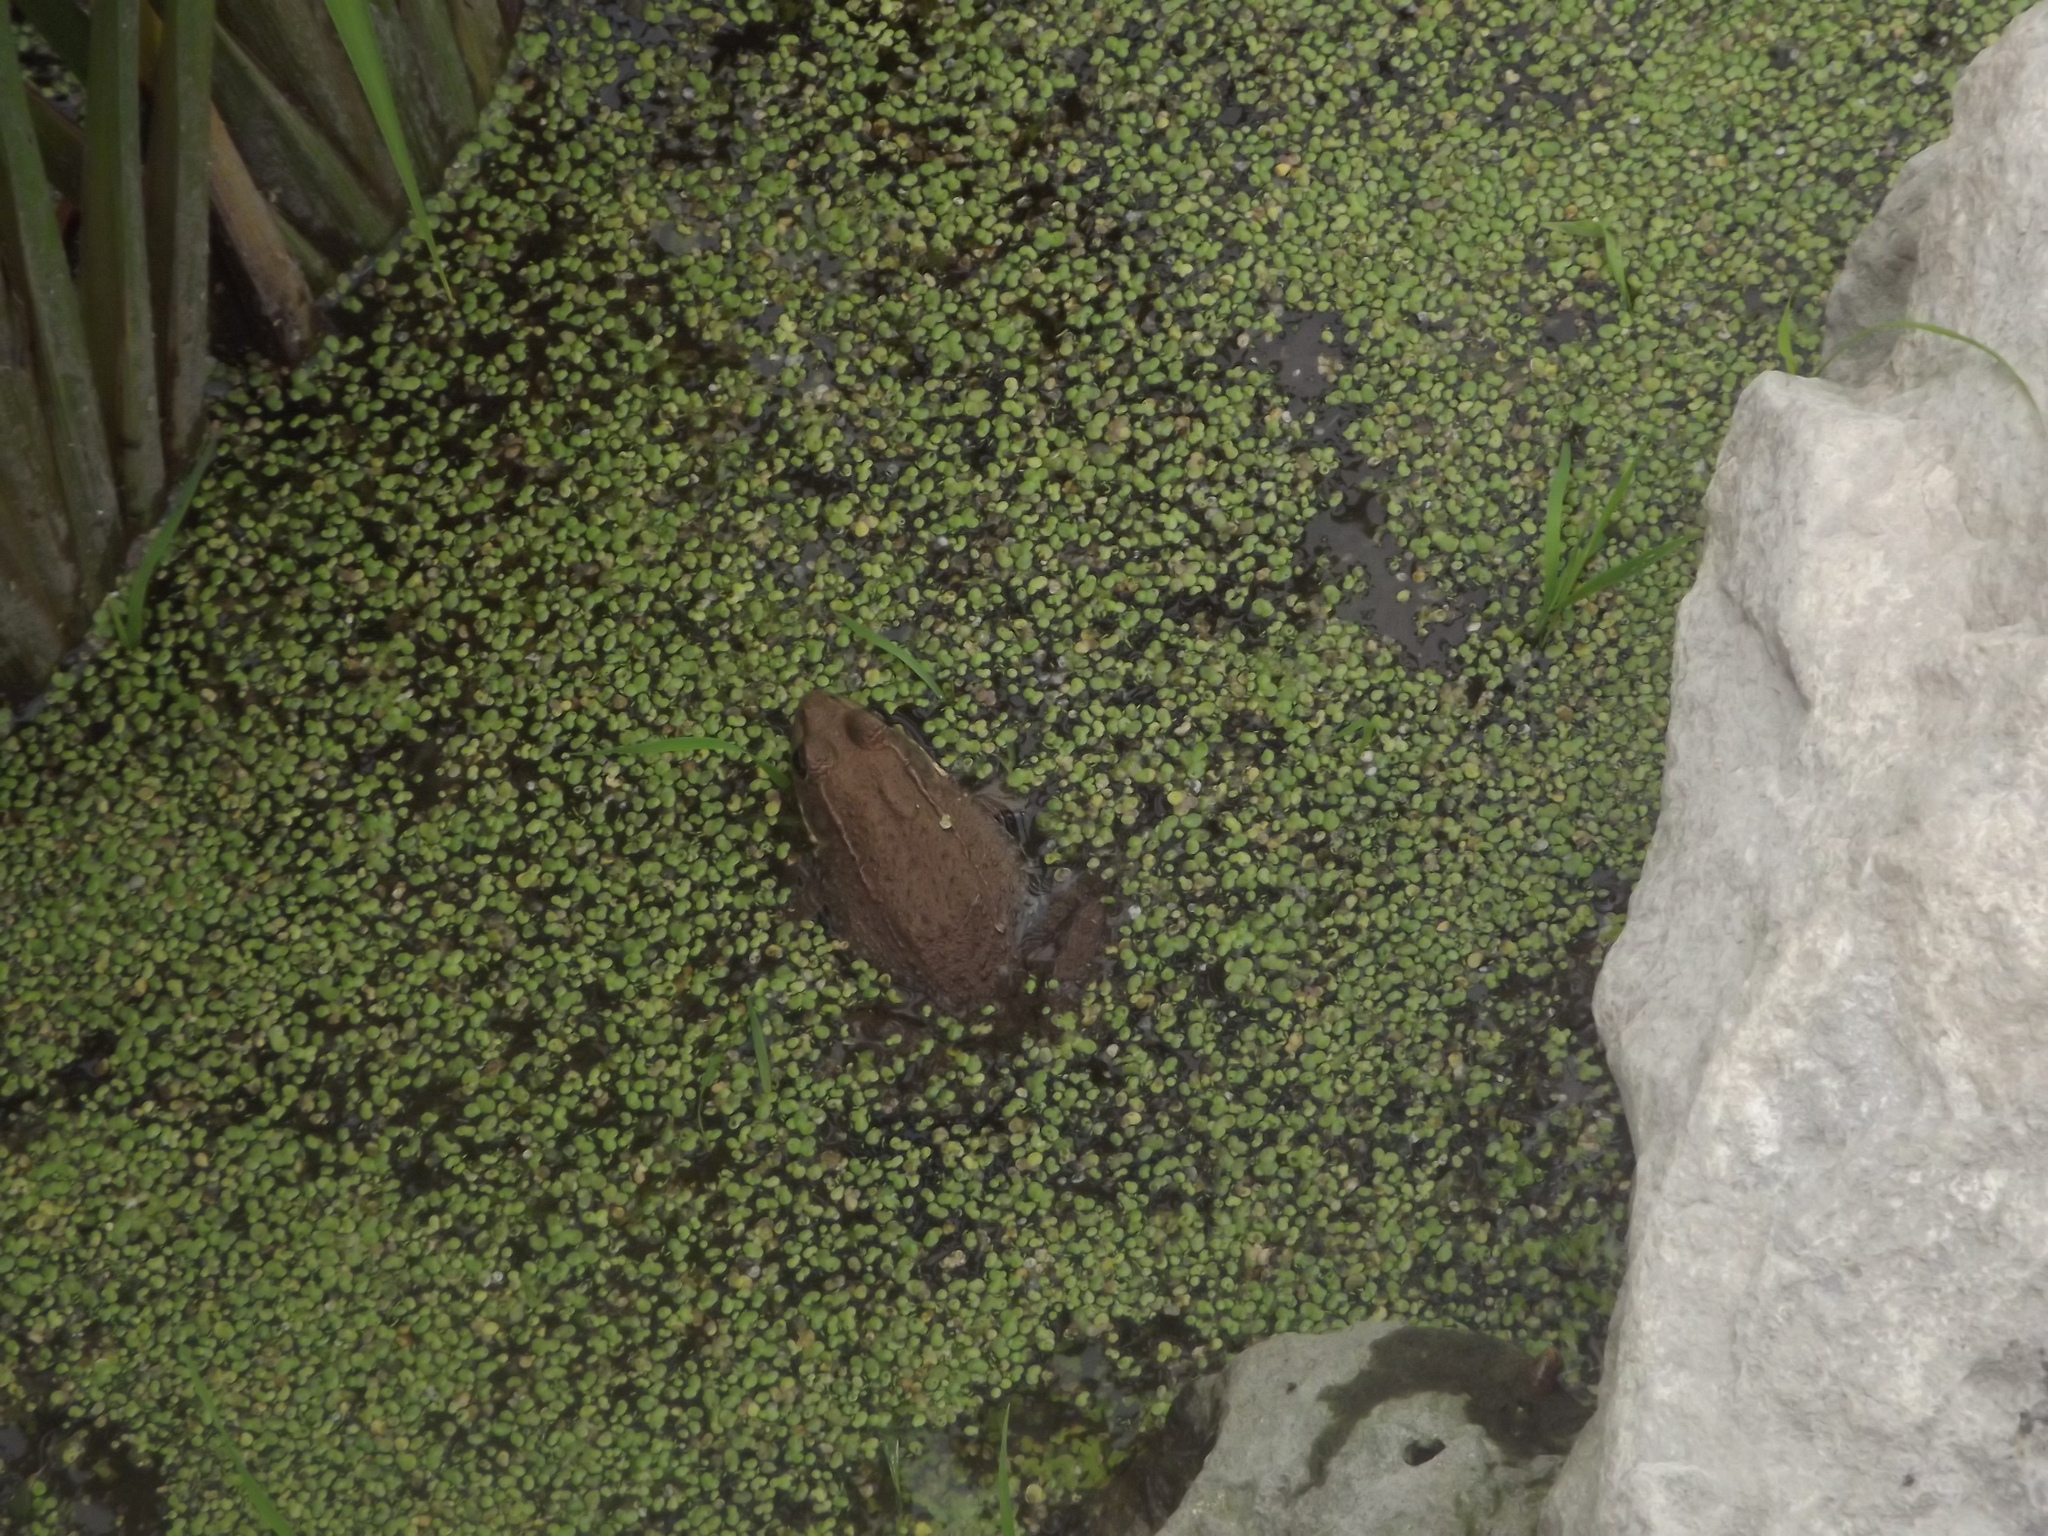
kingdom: Animalia
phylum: Chordata
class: Amphibia
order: Anura
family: Ranidae
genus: Lithobates
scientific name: Lithobates clamitans
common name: Green frog
